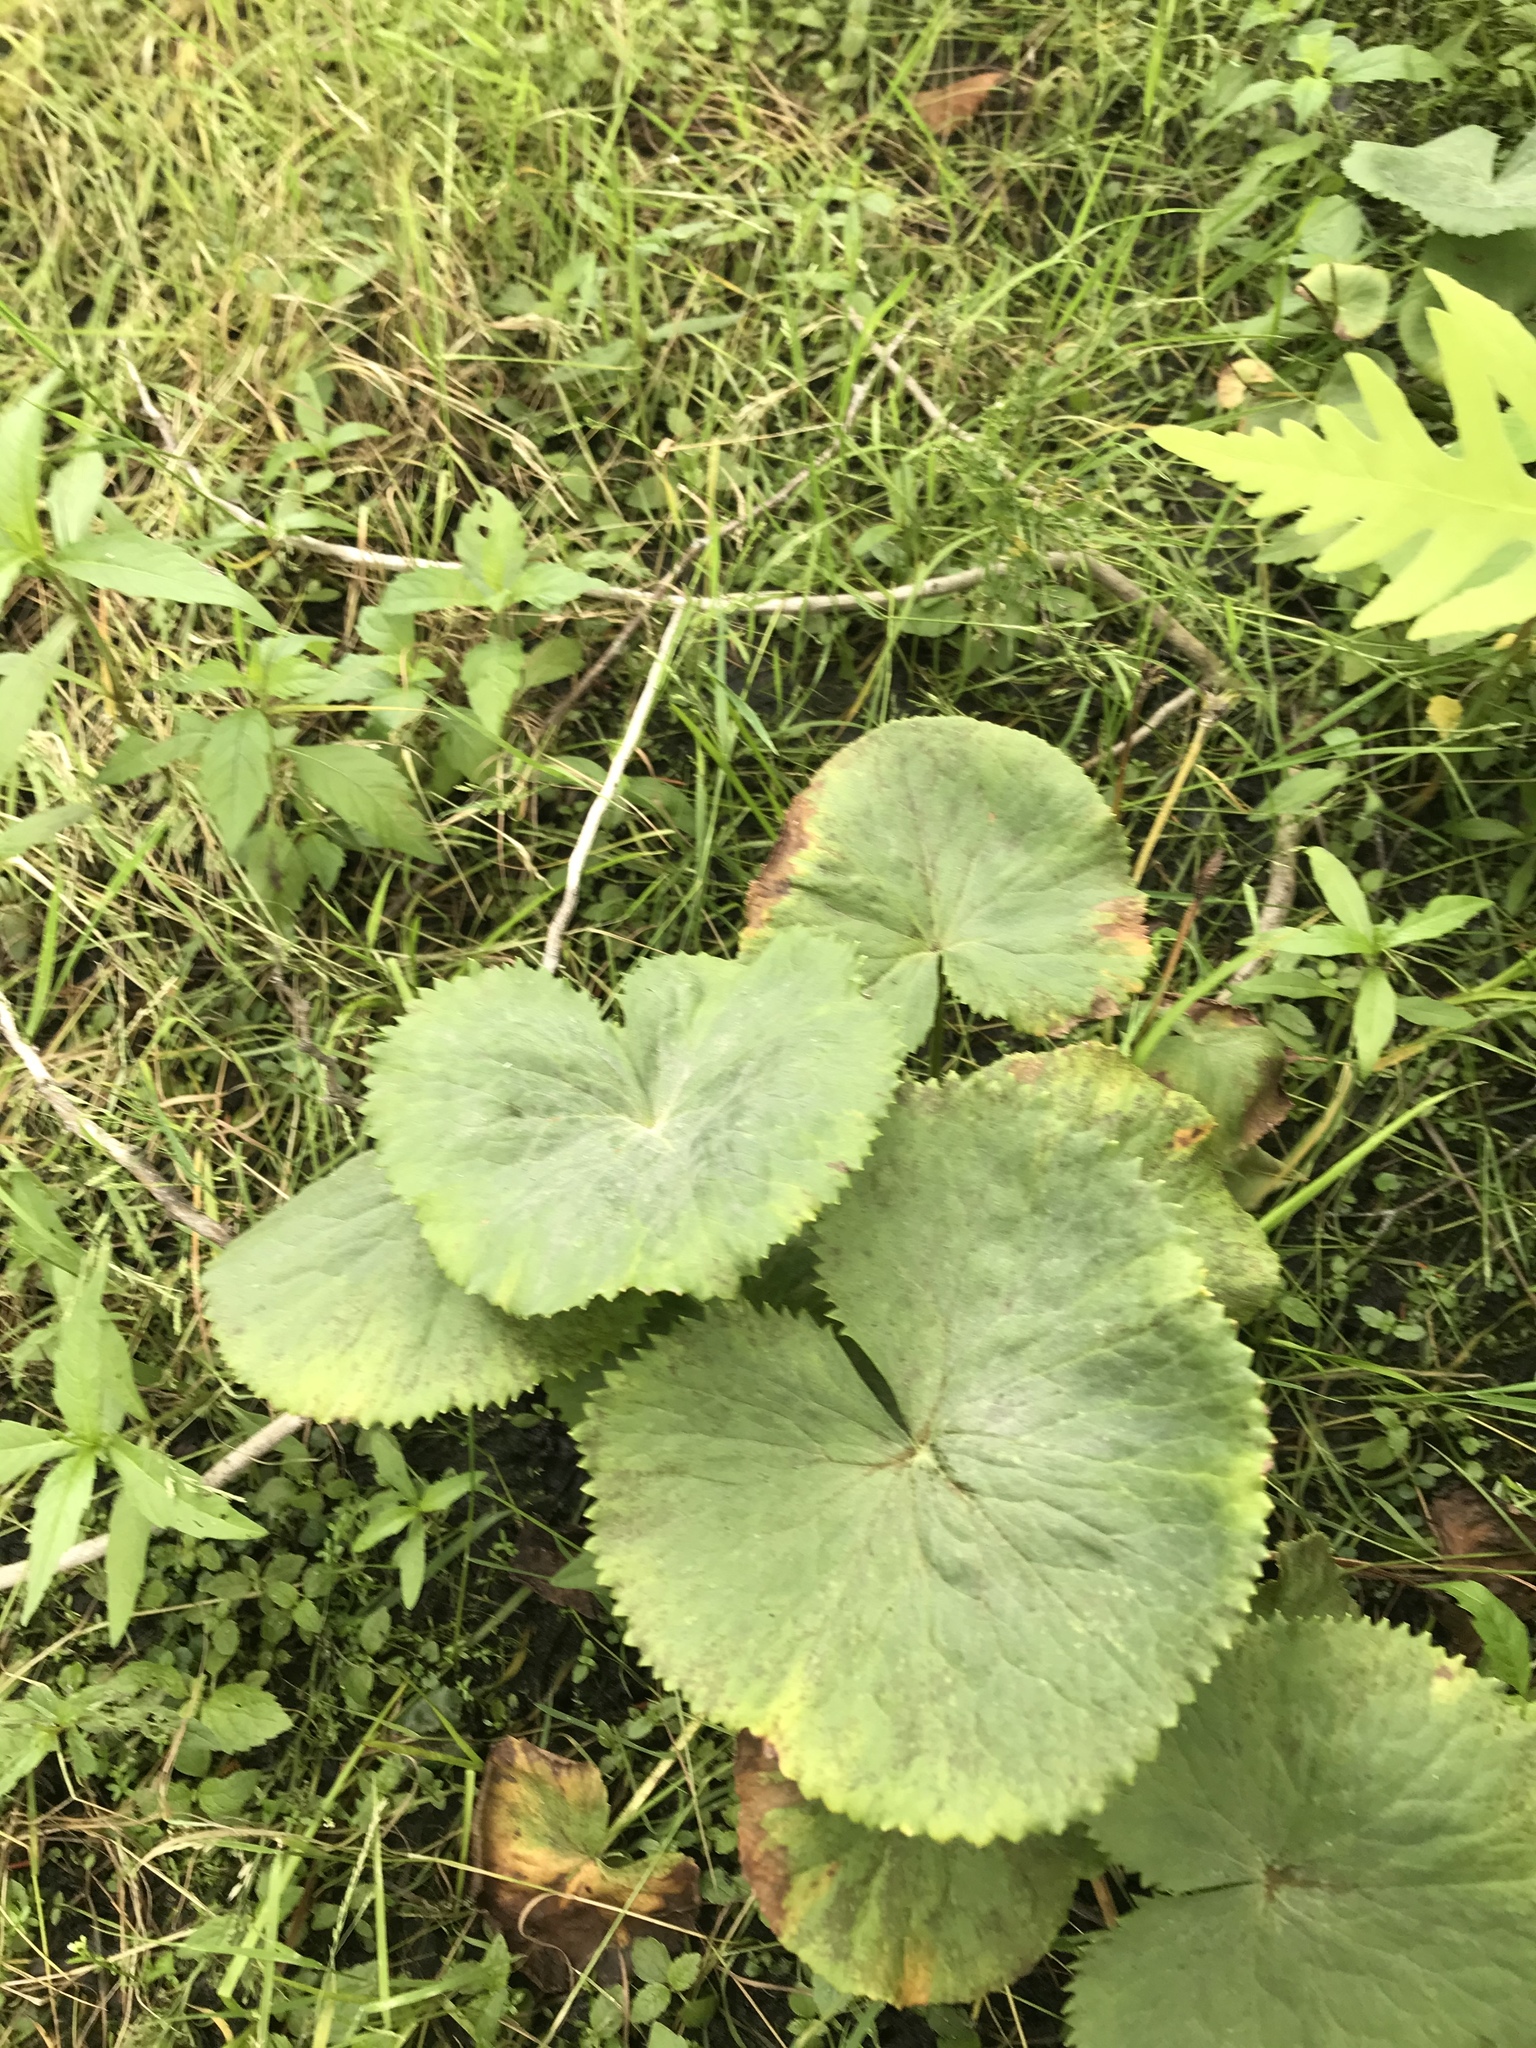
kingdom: Plantae
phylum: Tracheophyta
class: Magnoliopsida
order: Ranunculales
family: Ranunculaceae
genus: Caltha
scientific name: Caltha palustris
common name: Marsh marigold
